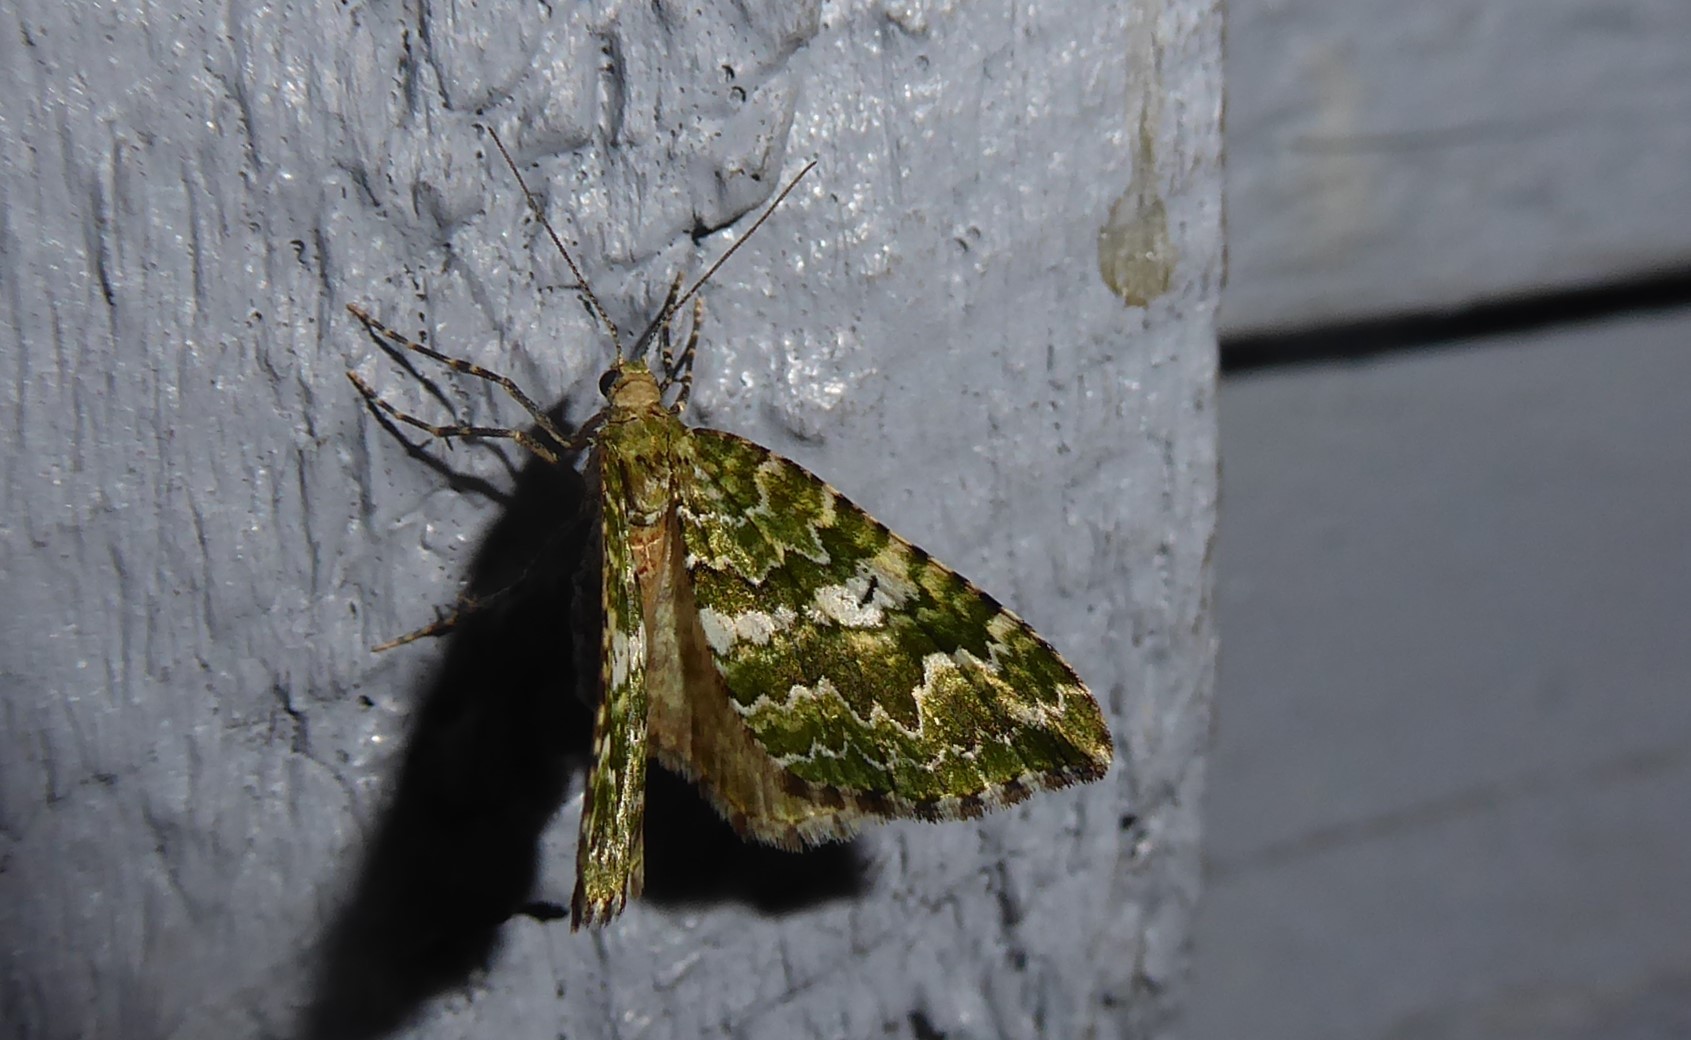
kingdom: Animalia
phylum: Arthropoda
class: Insecta
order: Lepidoptera
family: Geometridae
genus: Asaphodes
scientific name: Asaphodes beata
